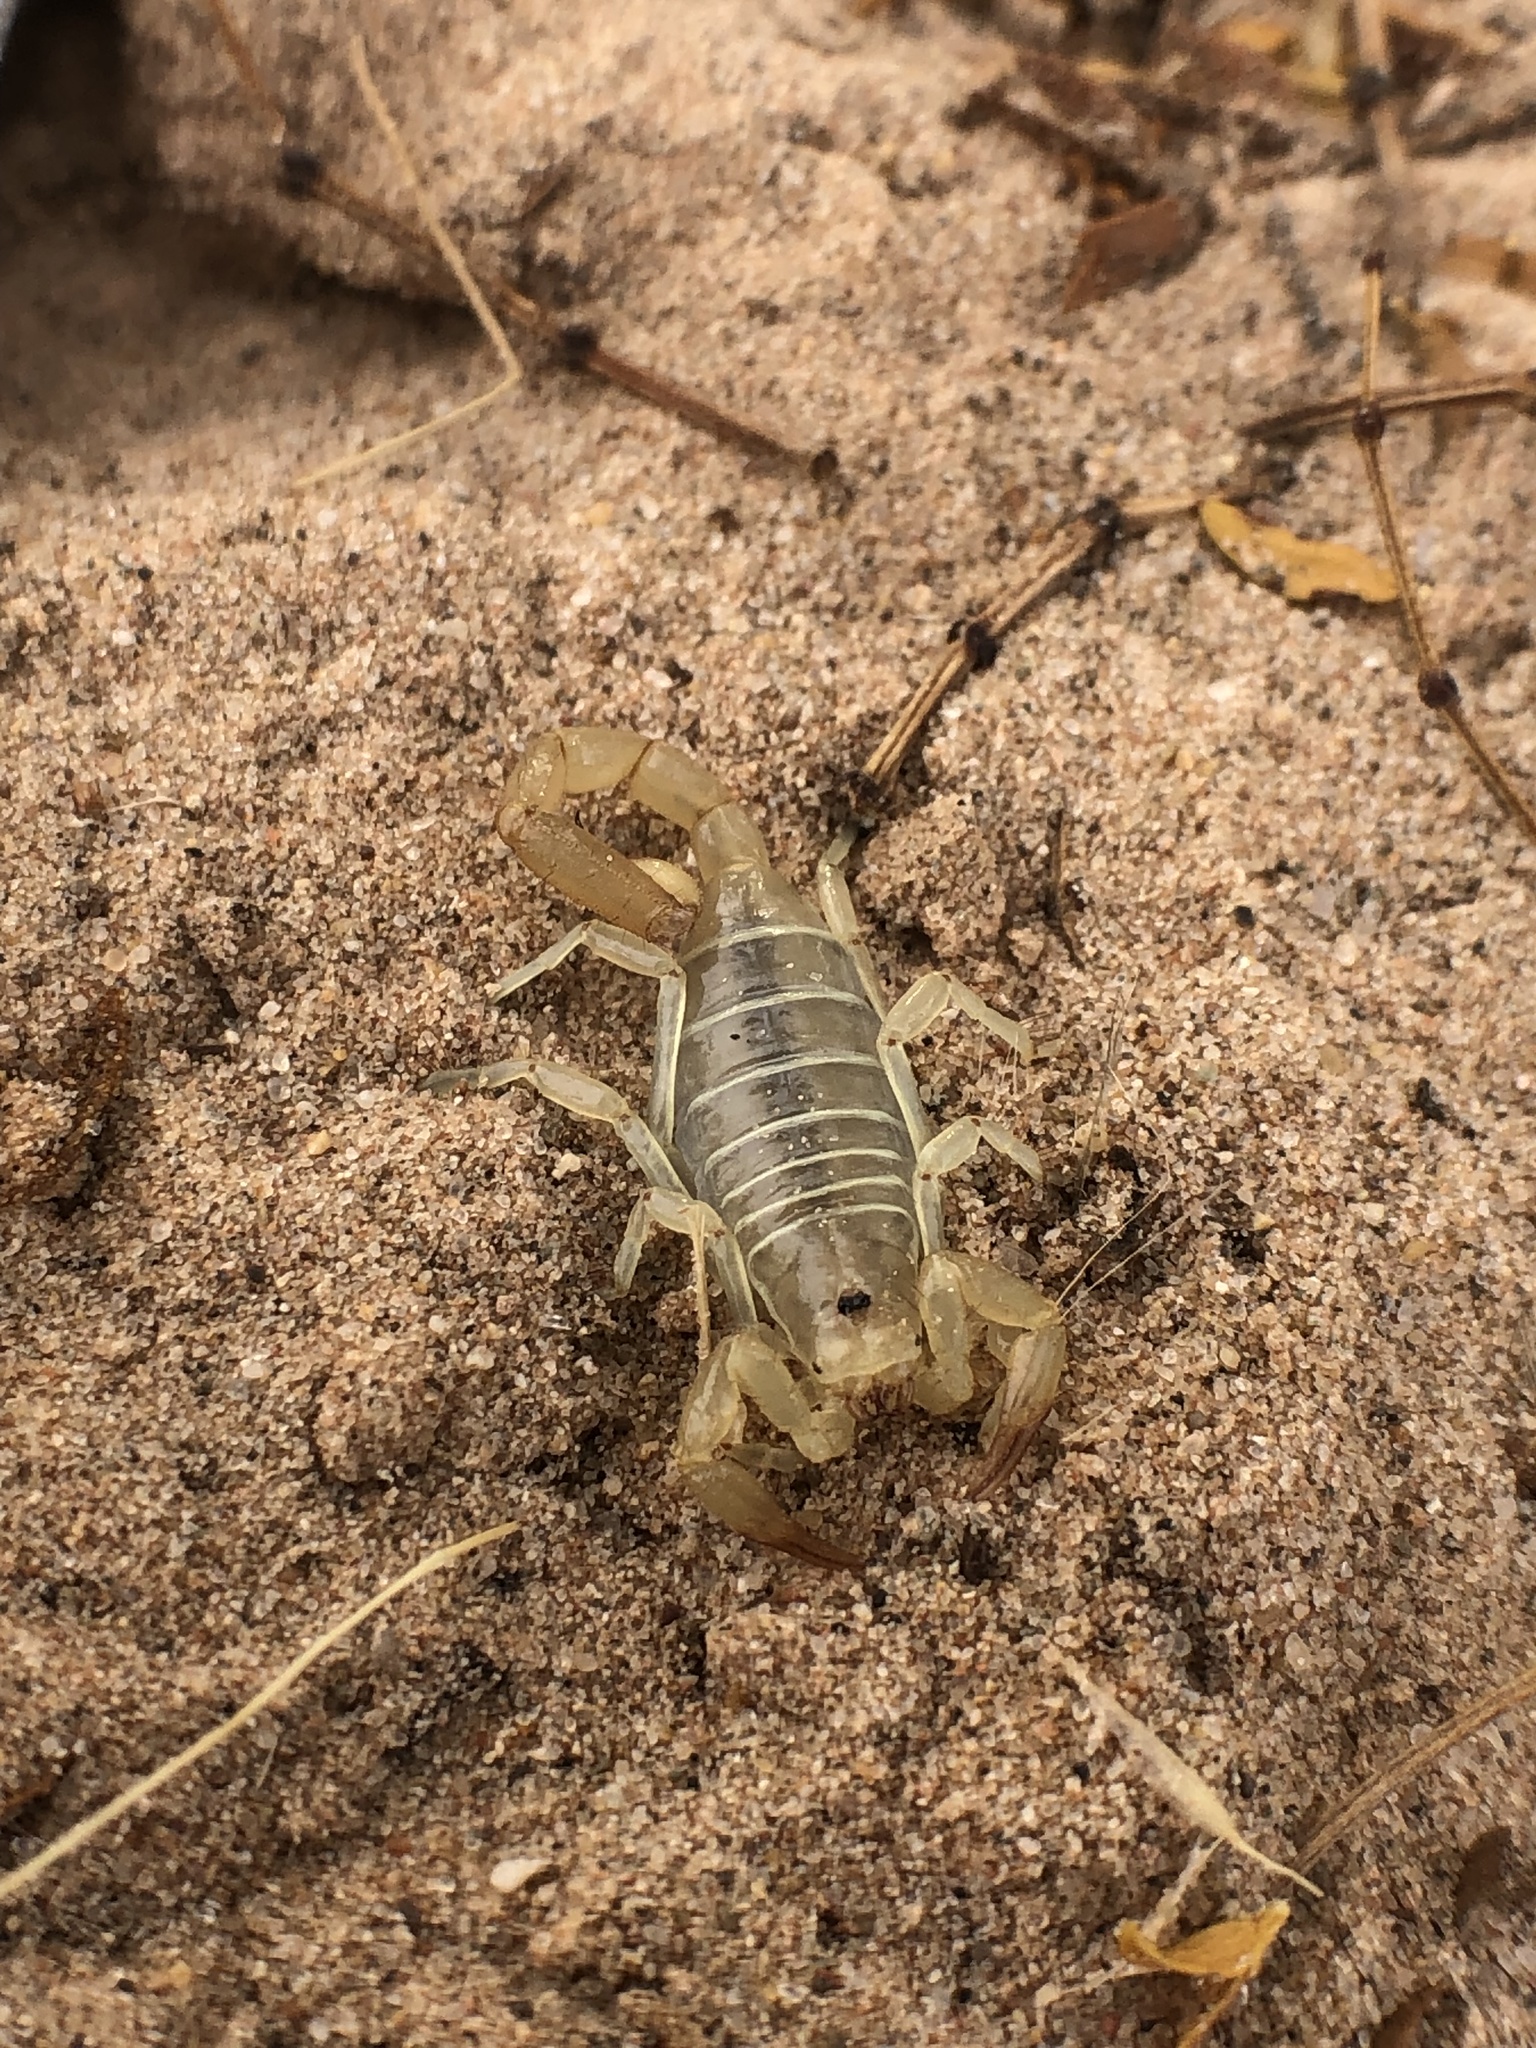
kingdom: Animalia
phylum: Arthropoda
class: Arachnida
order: Scorpiones
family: Vaejovidae
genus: Paruroctonus
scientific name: Paruroctonus borregoensis
